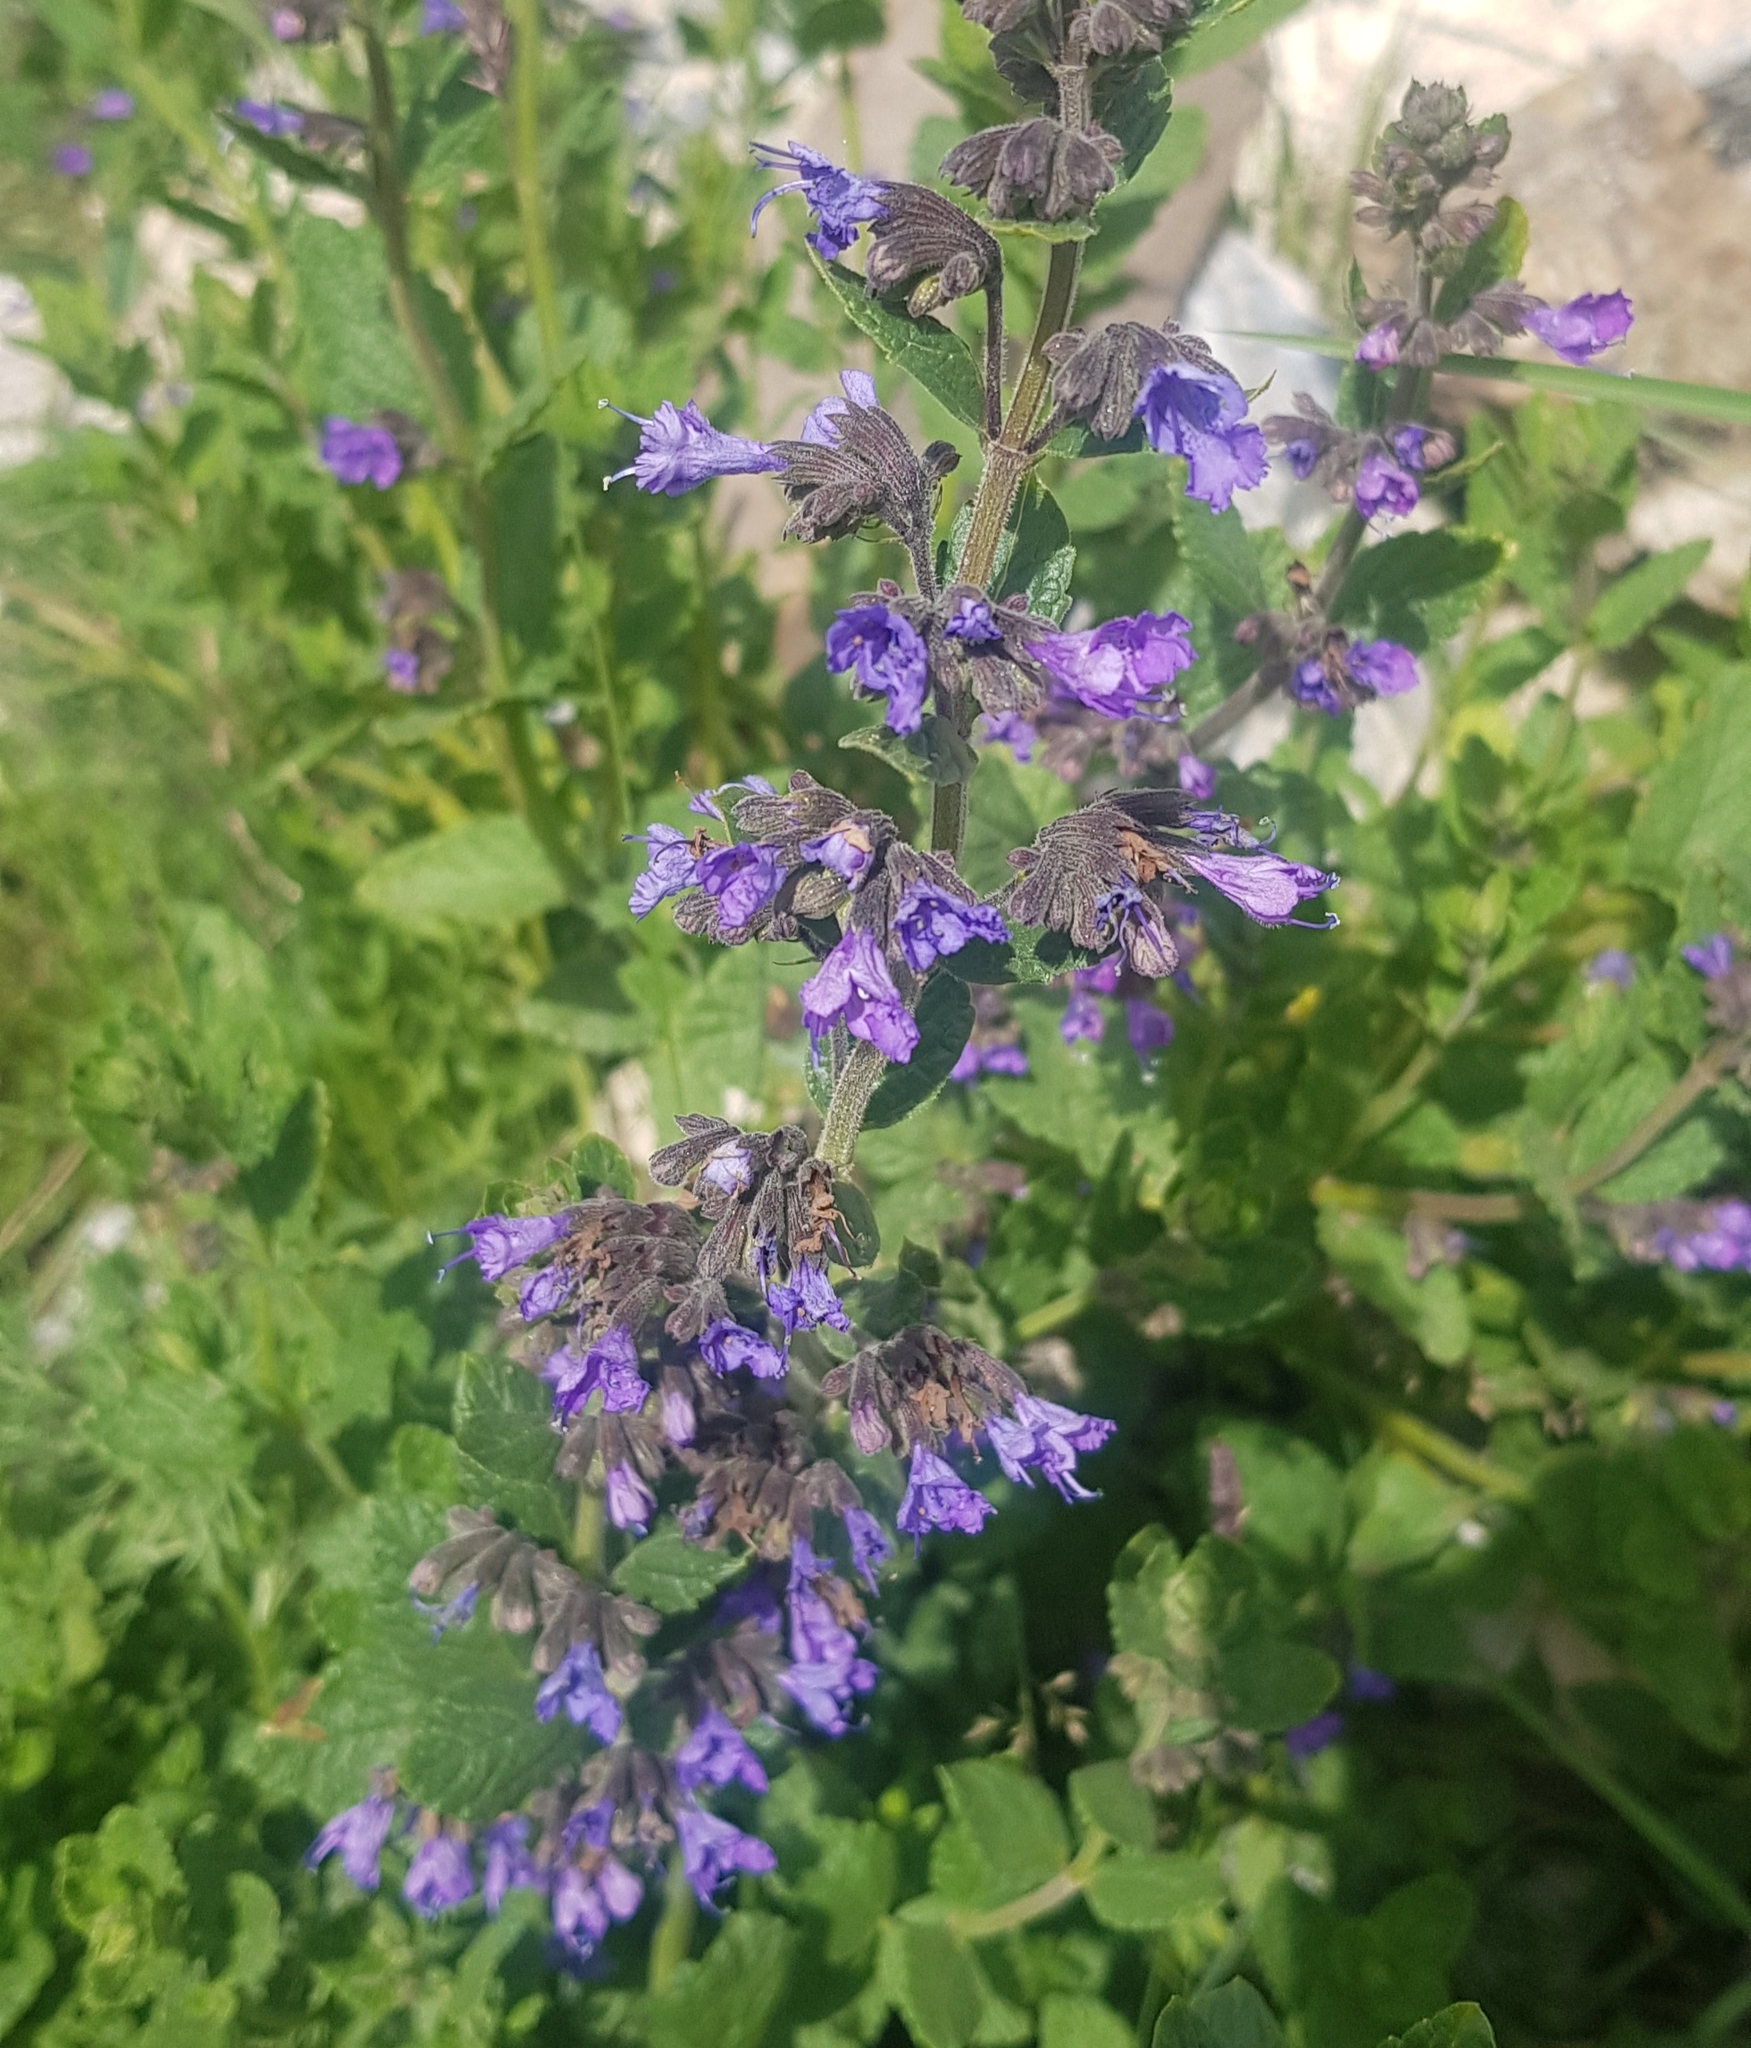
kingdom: Plantae
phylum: Tracheophyta
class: Magnoliopsida
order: Lamiales
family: Lamiaceae
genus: Nepeta
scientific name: Nepeta lophanthus
